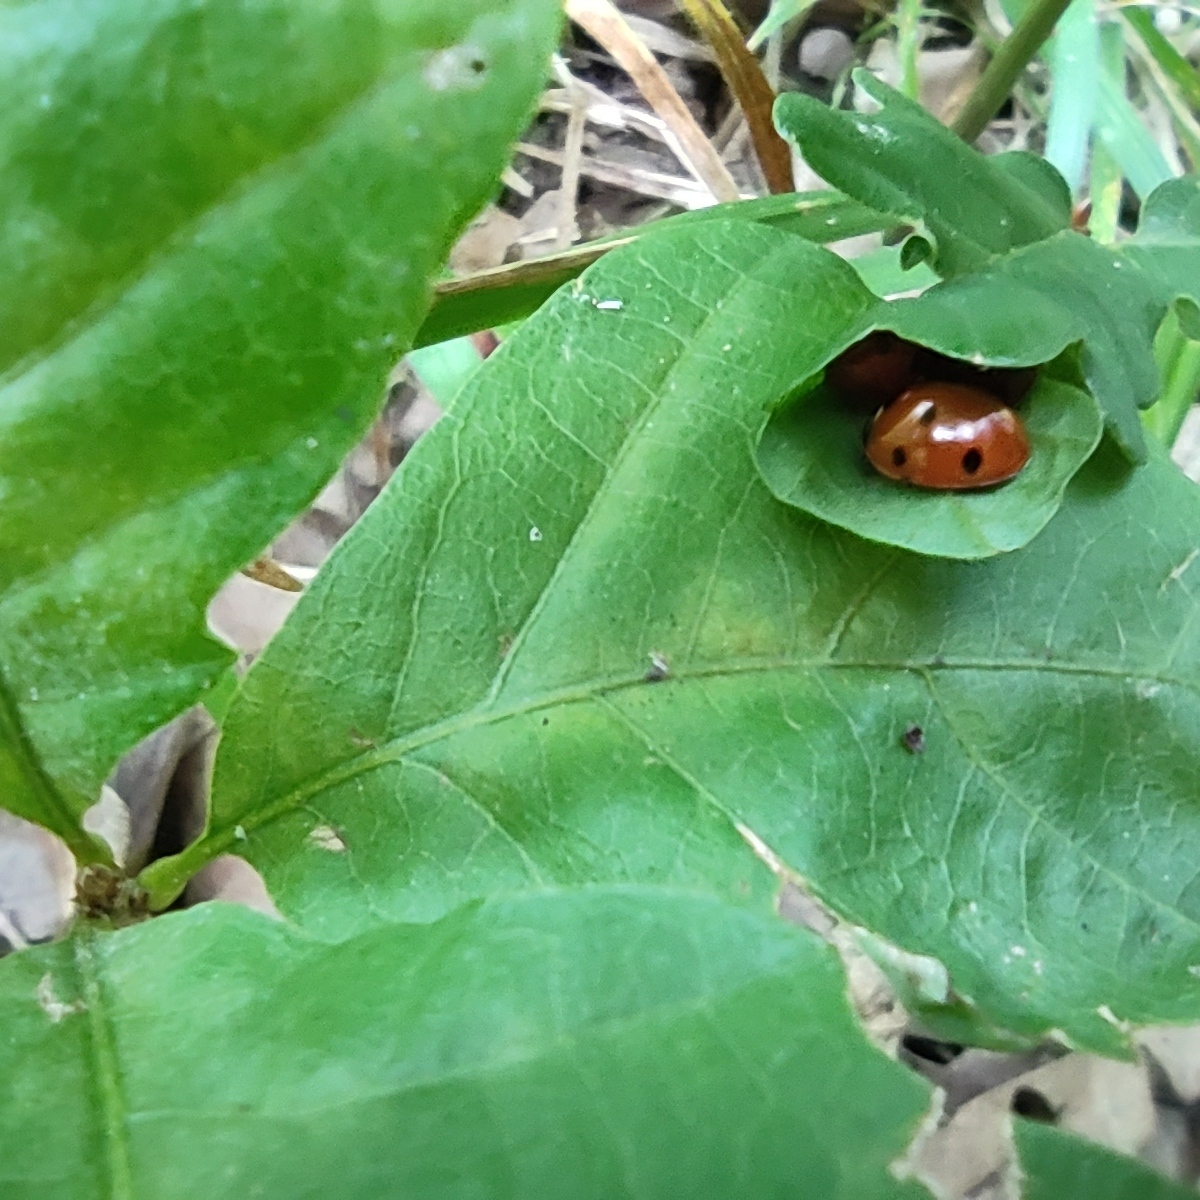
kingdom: Animalia
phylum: Arthropoda
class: Insecta
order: Coleoptera
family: Coccinellidae
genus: Coccinella
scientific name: Coccinella septempunctata
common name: Sevenspotted lady beetle
